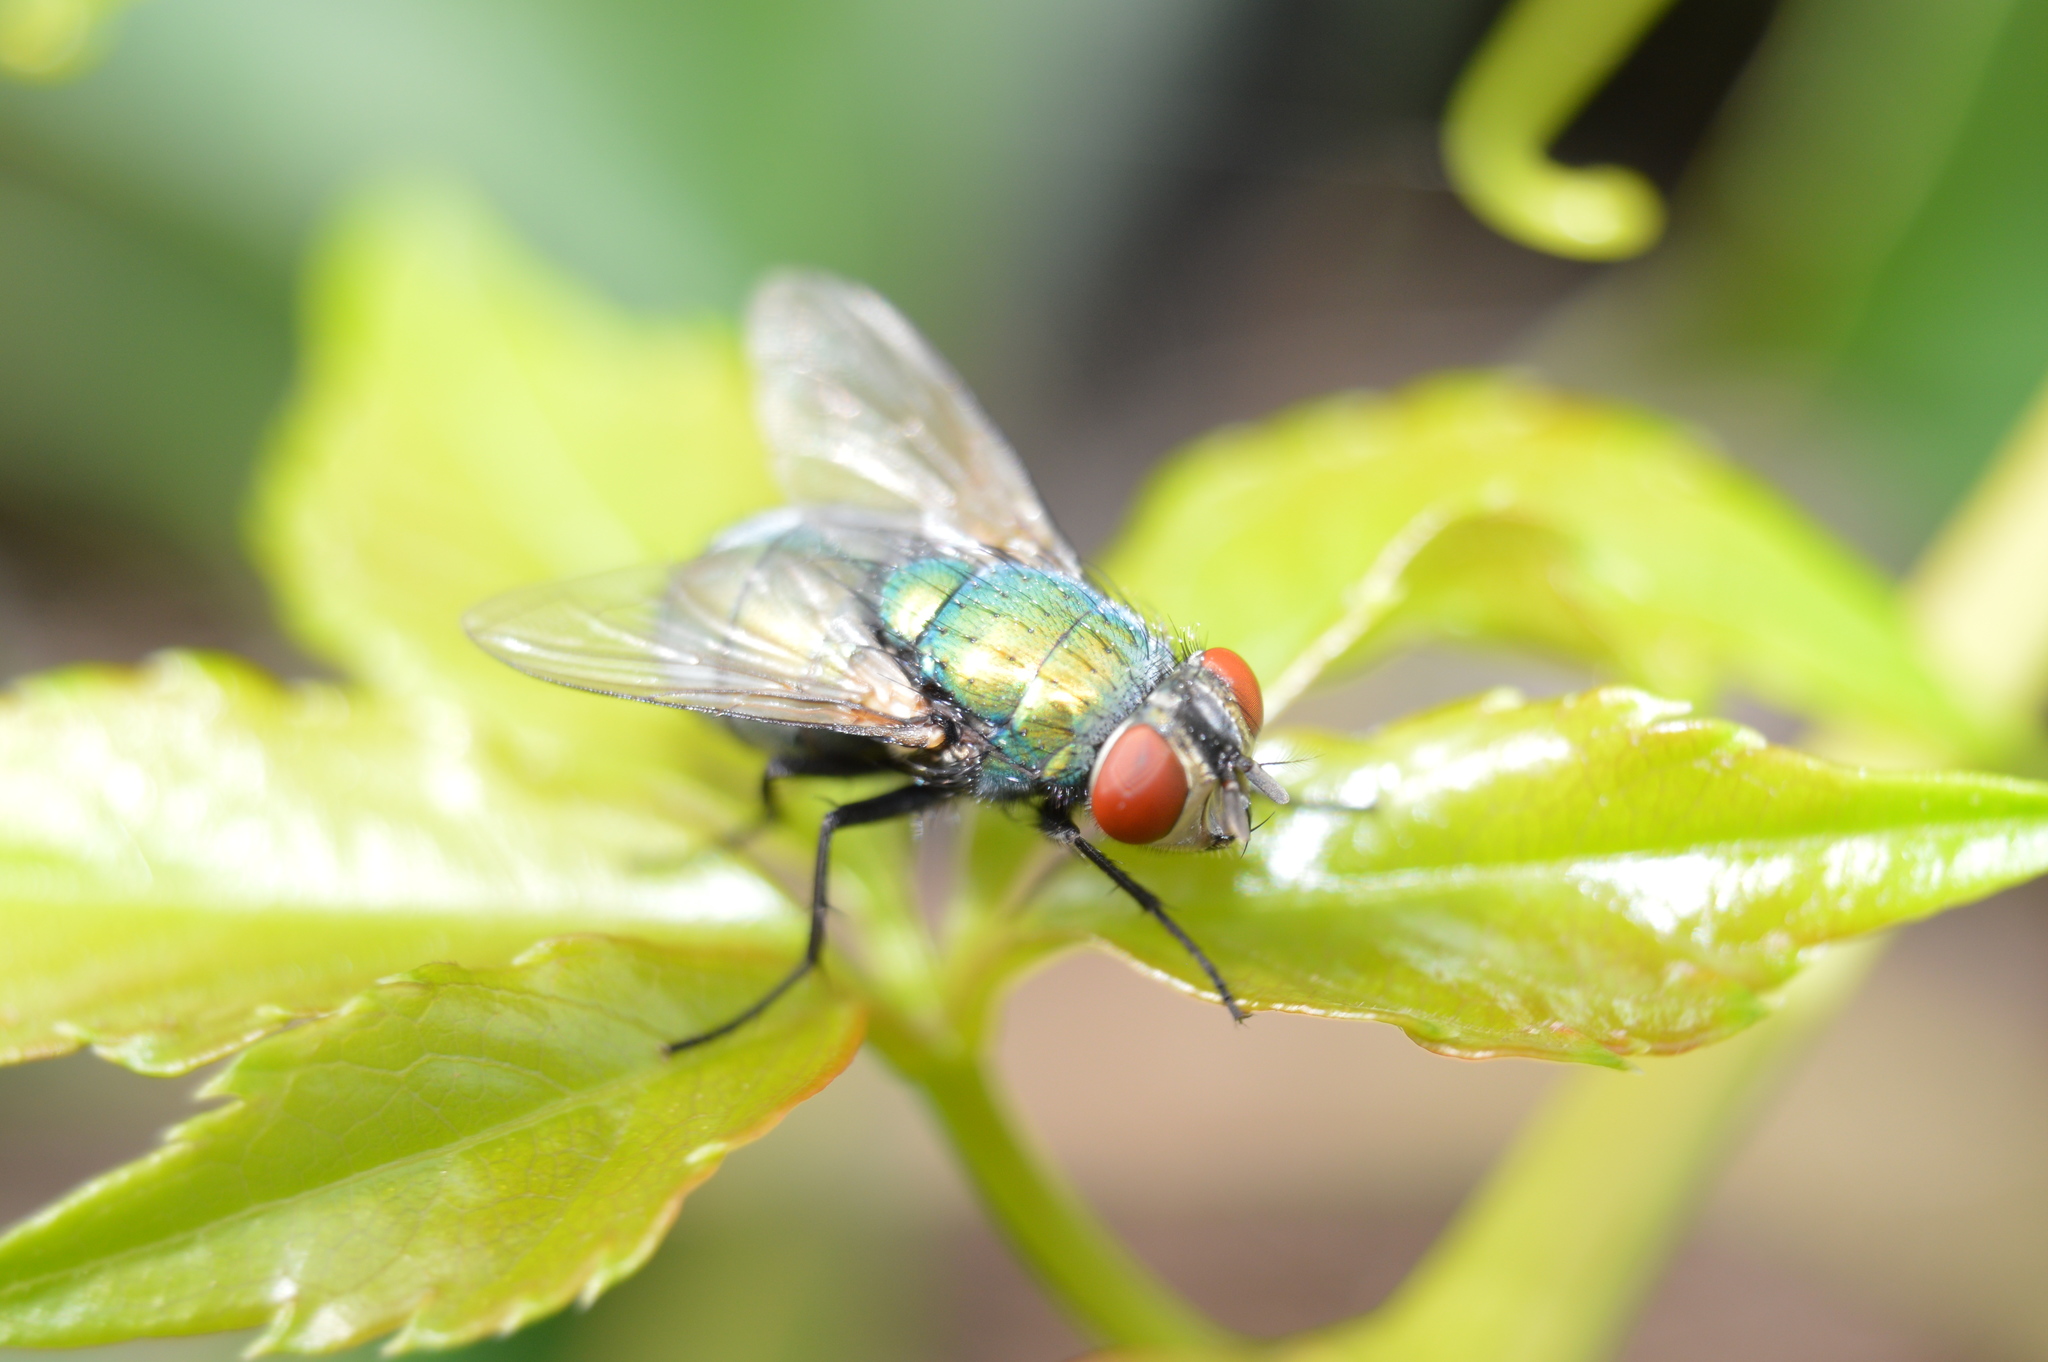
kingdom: Animalia
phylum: Arthropoda
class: Insecta
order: Diptera
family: Calliphoridae
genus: Lucilia
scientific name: Lucilia sericata
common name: Blow fly
